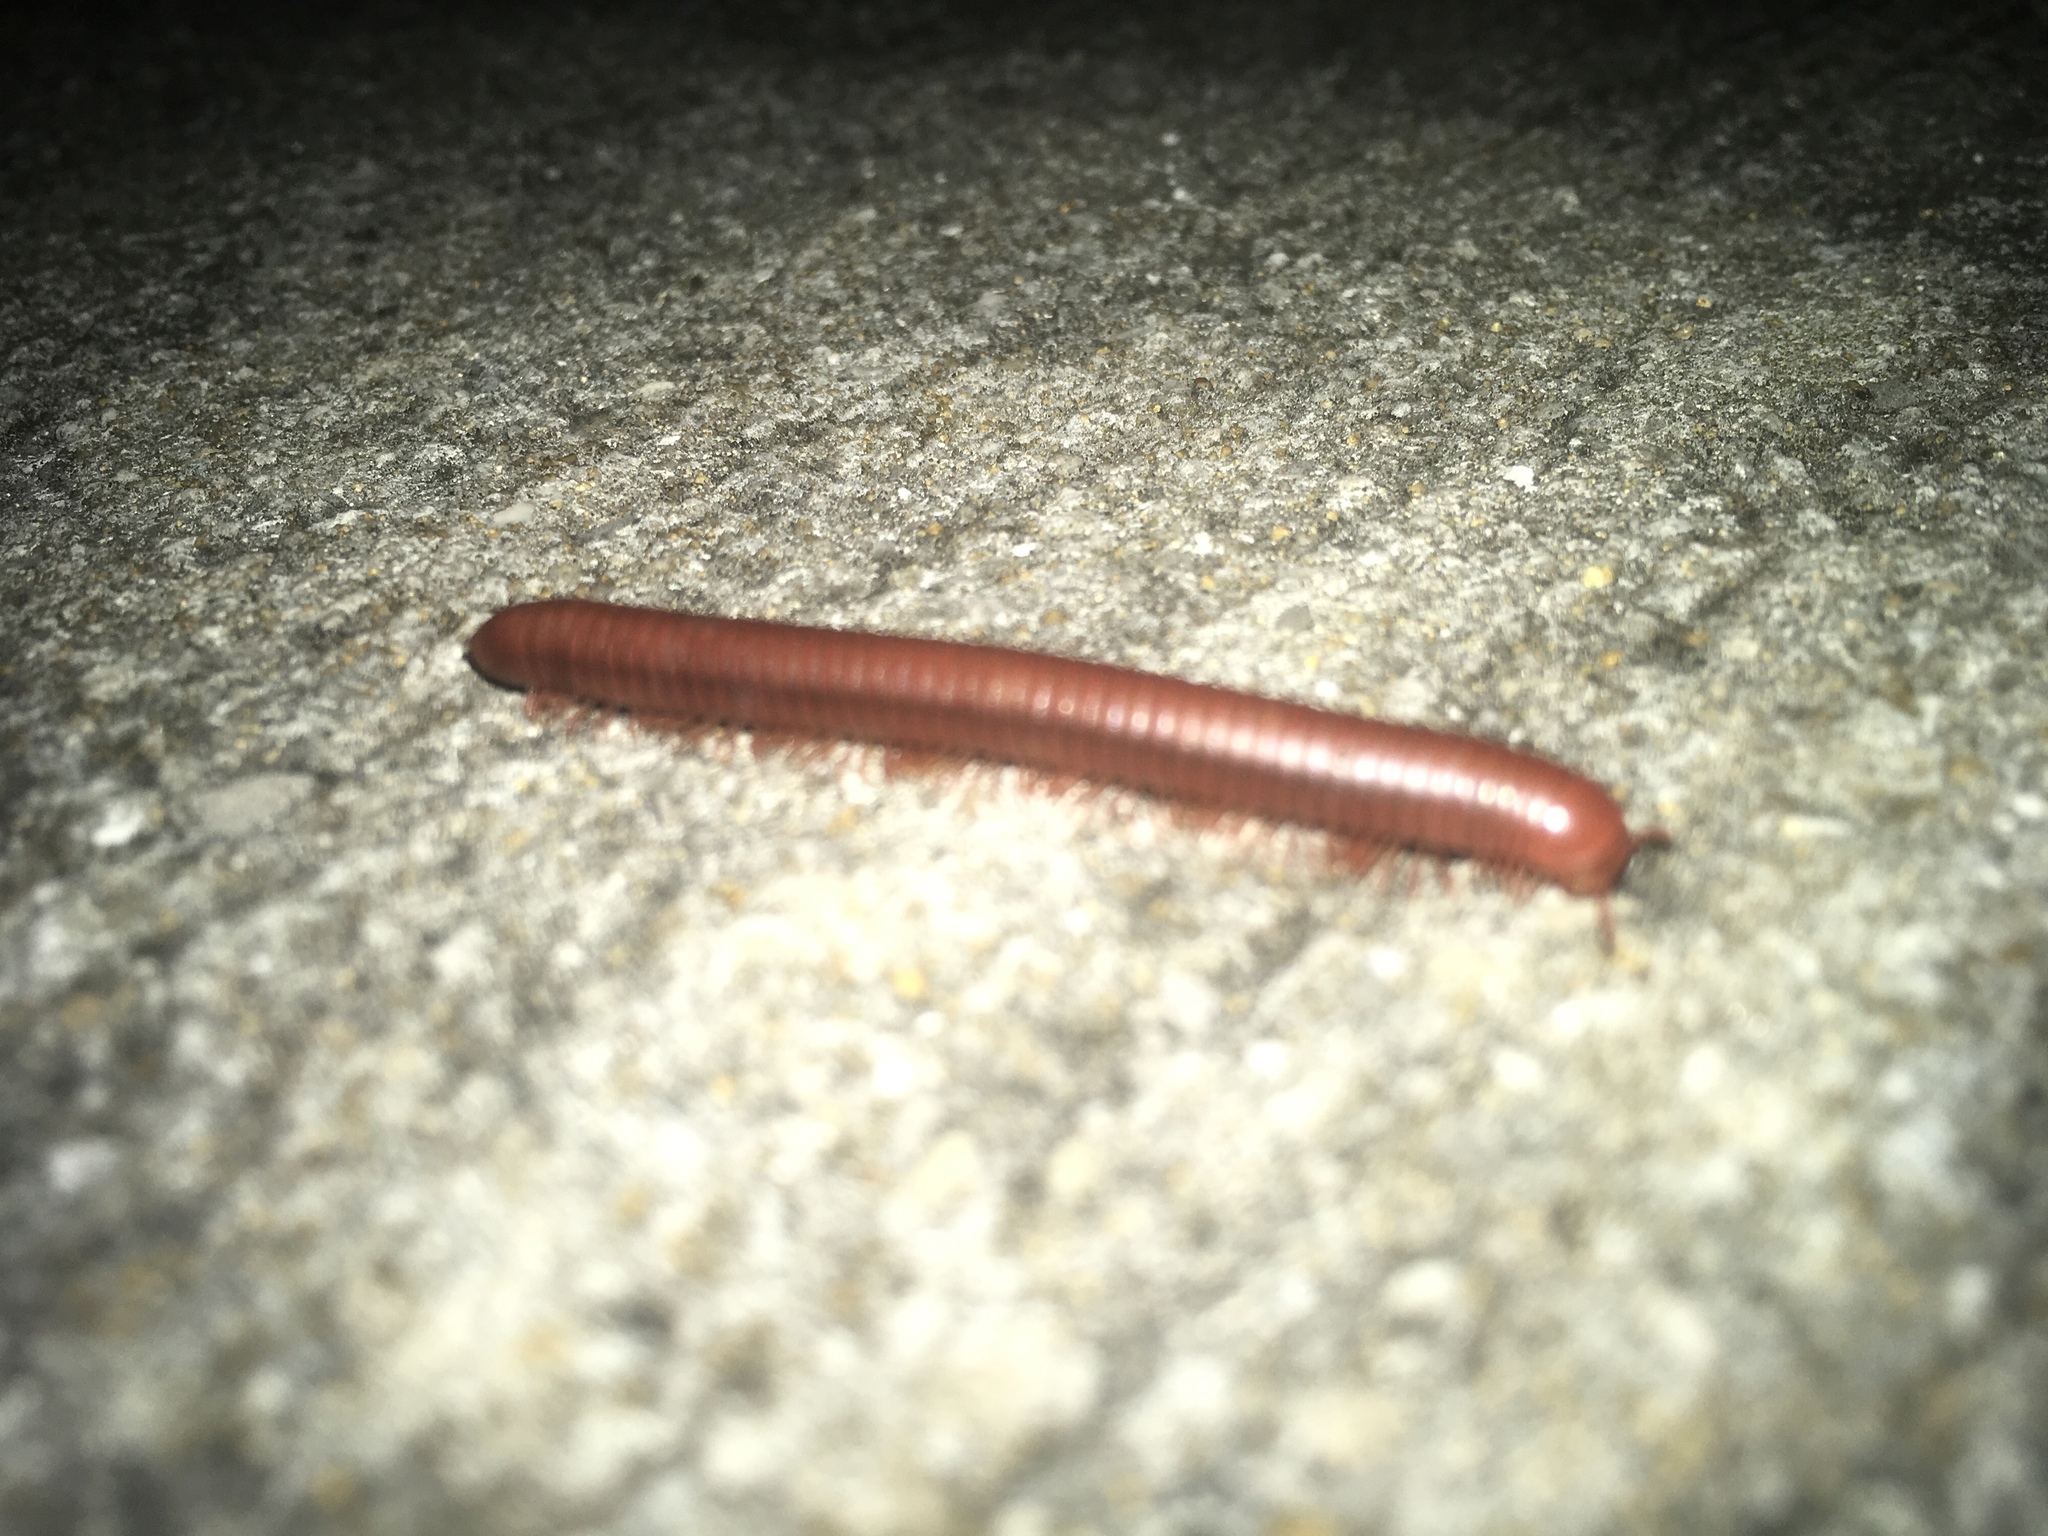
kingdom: Animalia
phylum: Arthropoda
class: Diplopoda
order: Spirobolida
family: Pachybolidae
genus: Trigoniulus
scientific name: Trigoniulus corallinus
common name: Millipede
